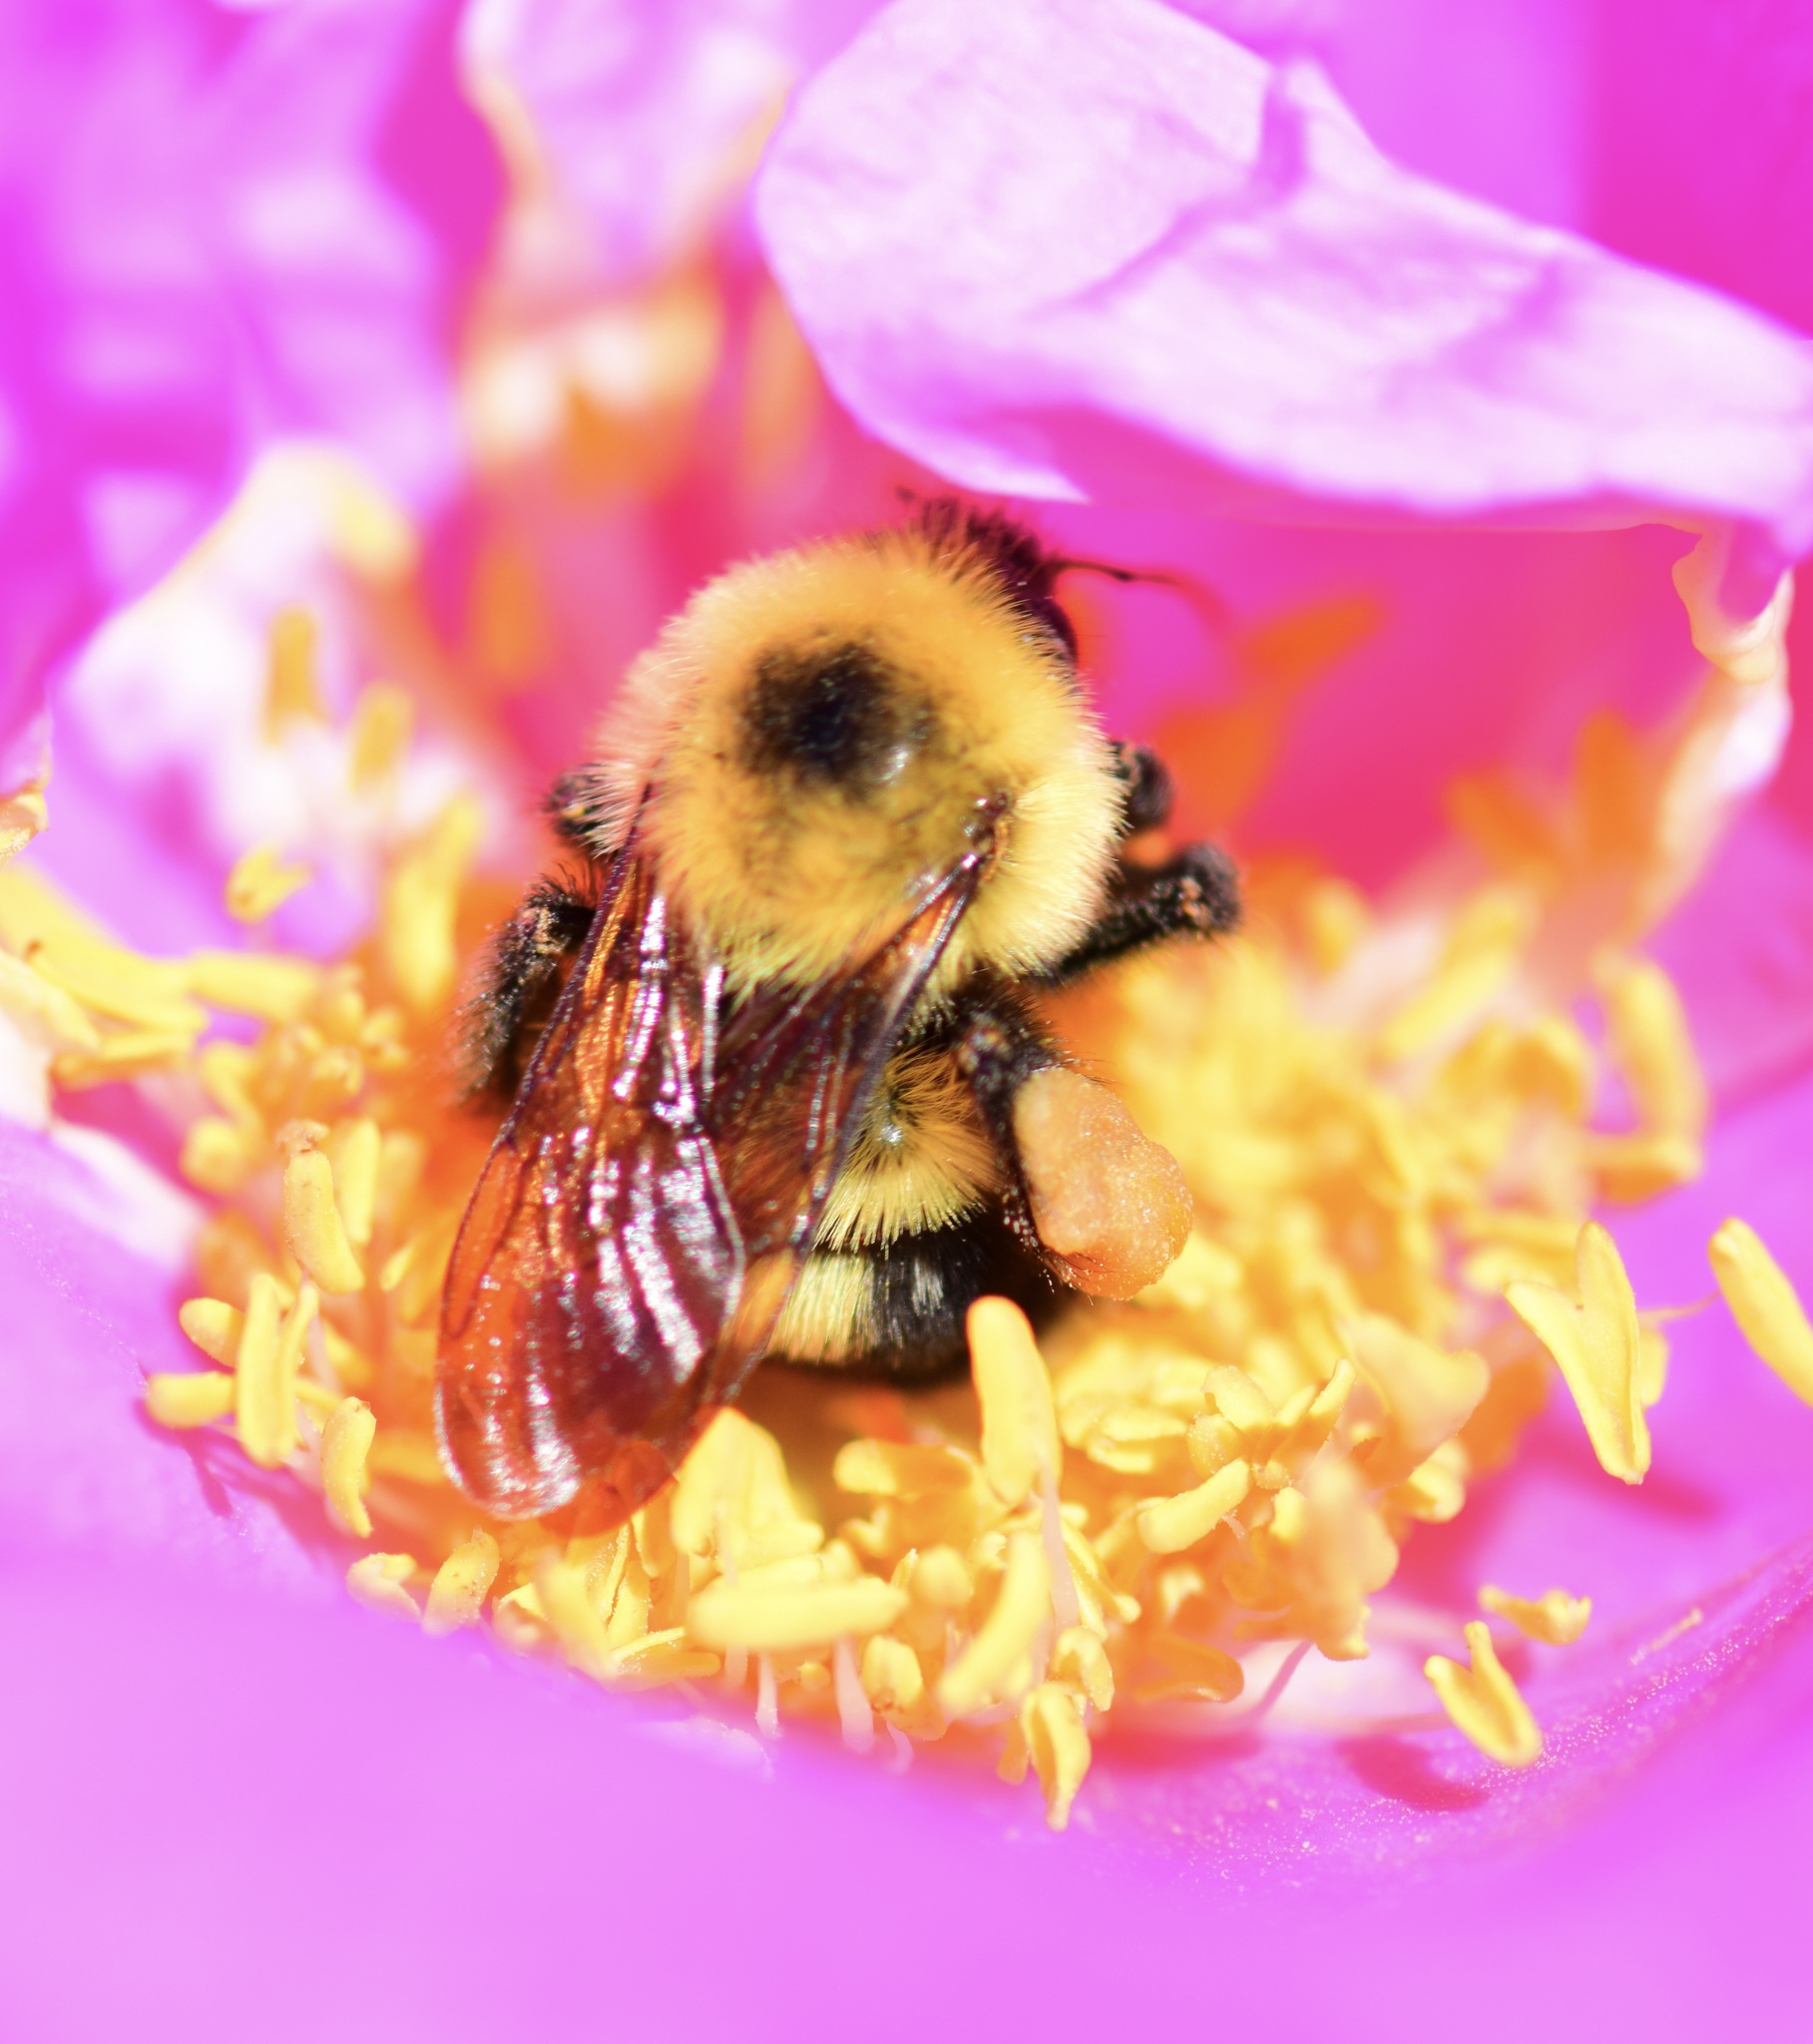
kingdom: Animalia
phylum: Arthropoda
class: Insecta
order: Hymenoptera
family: Apidae
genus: Bombus
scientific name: Bombus bimaculatus
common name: Two-spotted bumble bee
